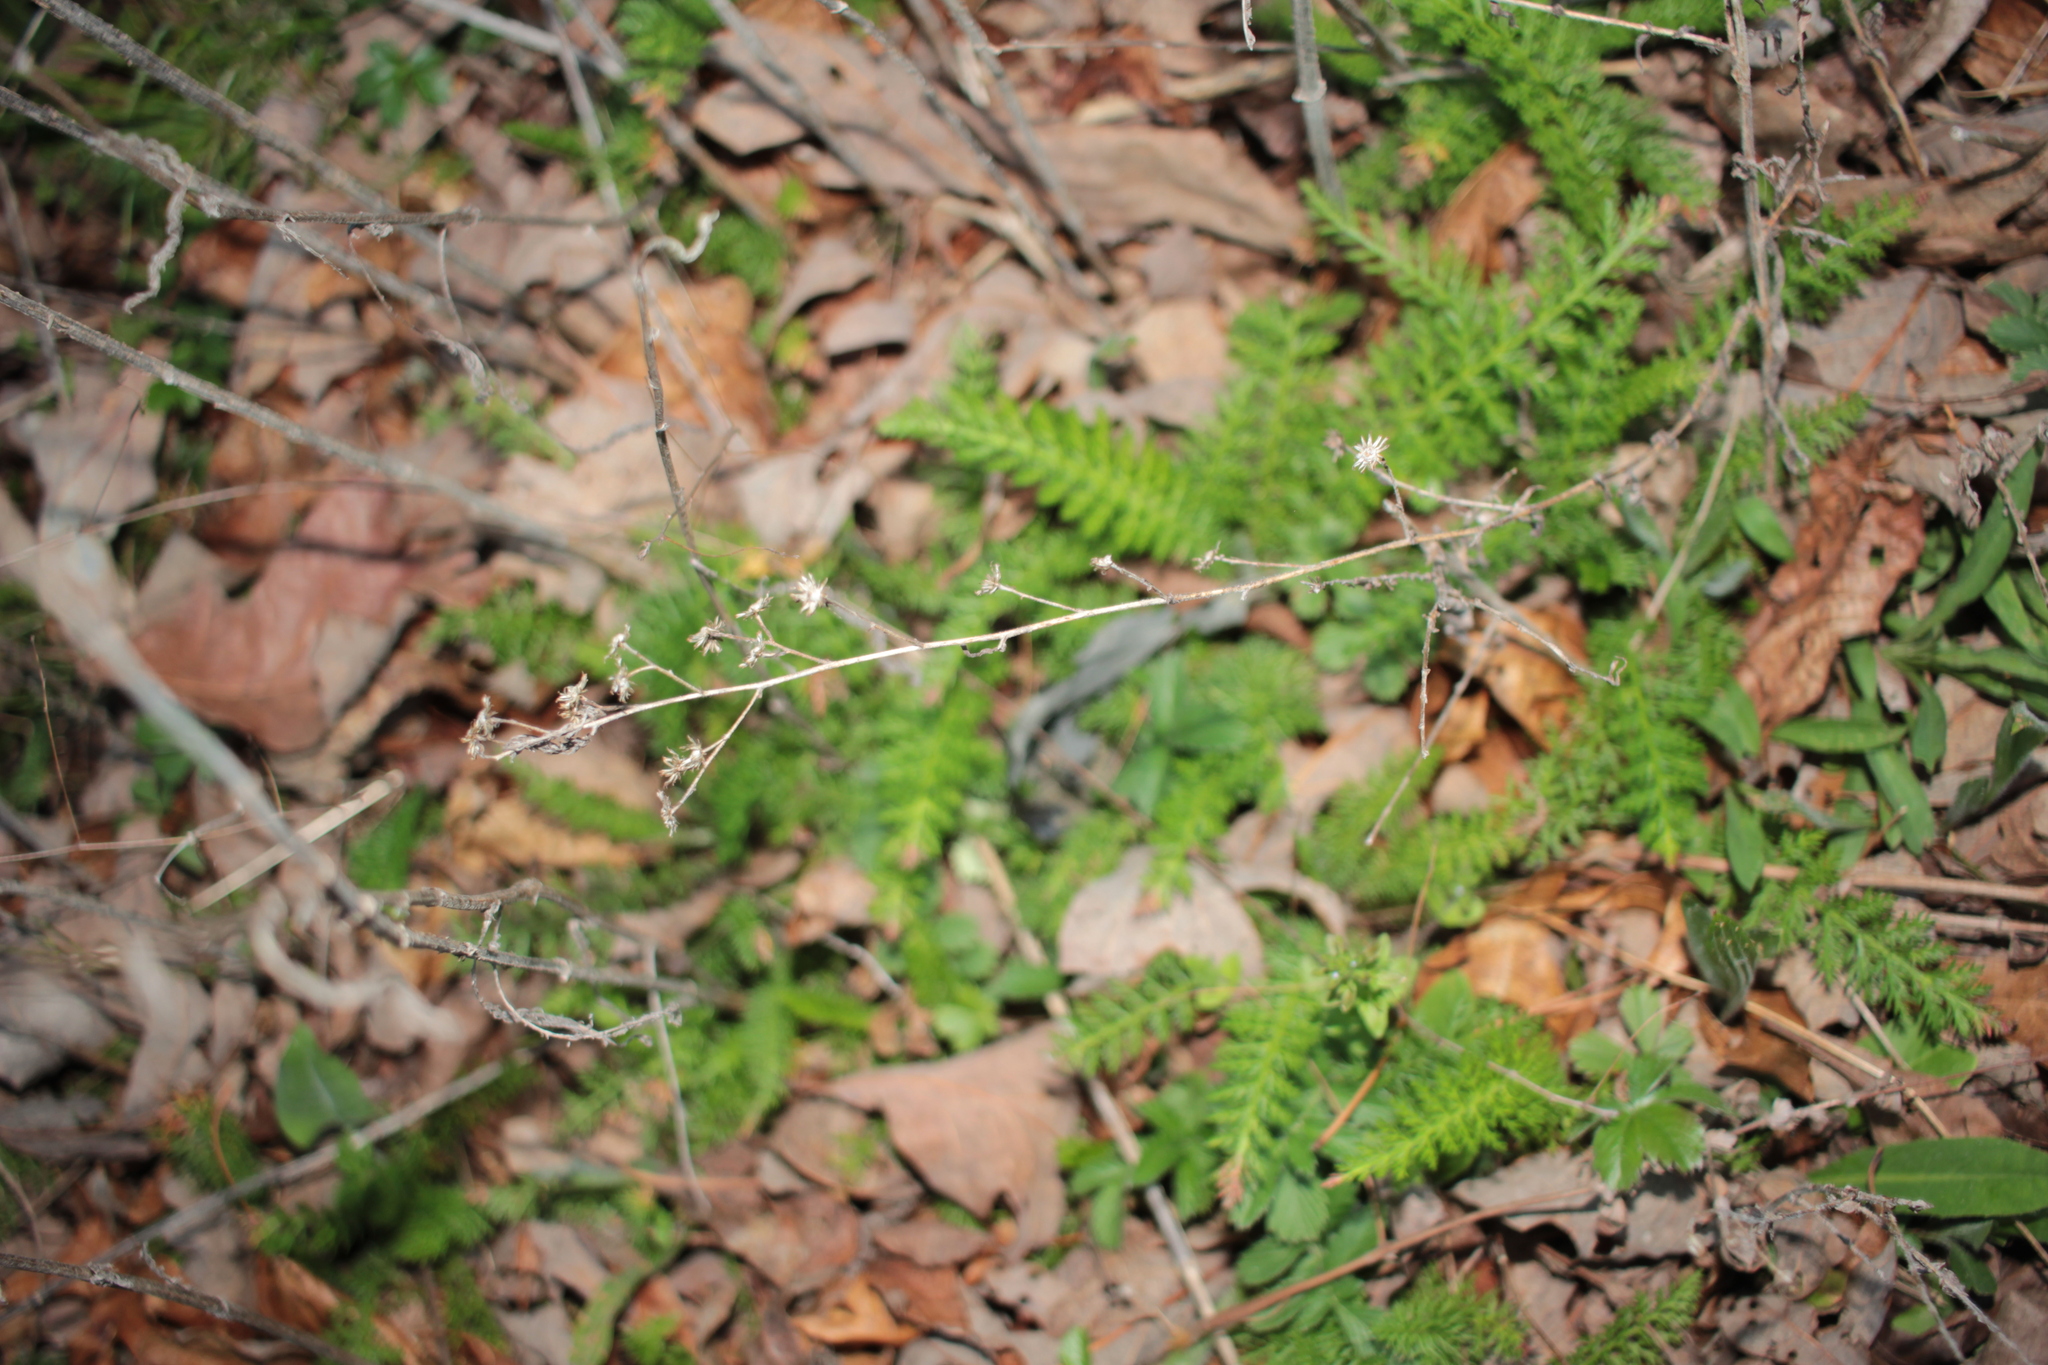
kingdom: Plantae
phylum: Tracheophyta
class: Magnoliopsida
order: Asterales
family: Asteraceae
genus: Achillea
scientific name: Achillea millefolium
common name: Yarrow
